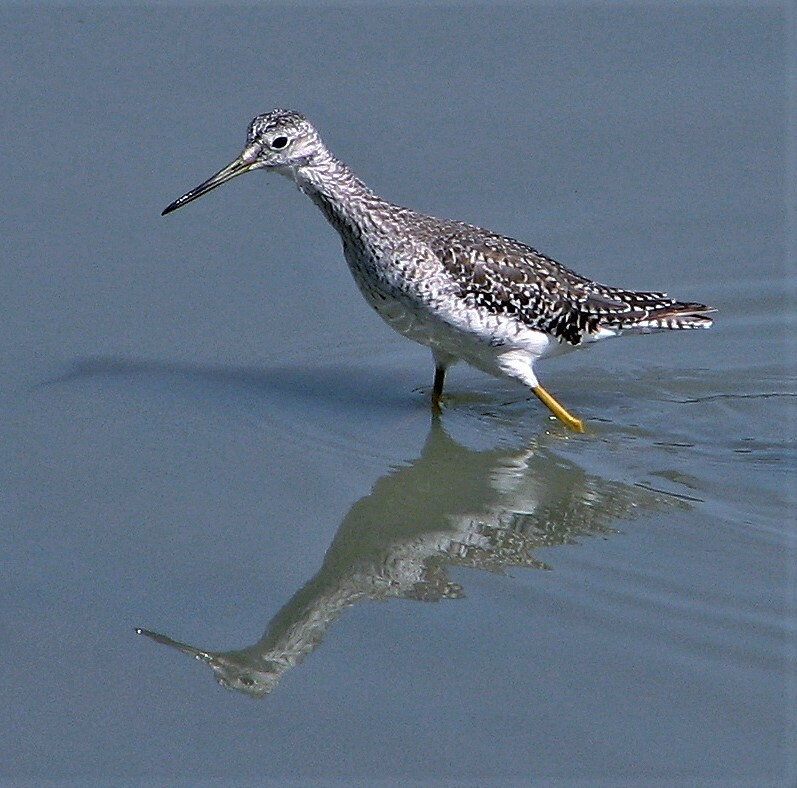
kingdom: Animalia
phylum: Chordata
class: Aves
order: Charadriiformes
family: Scolopacidae
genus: Tringa
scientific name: Tringa melanoleuca
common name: Greater yellowlegs
